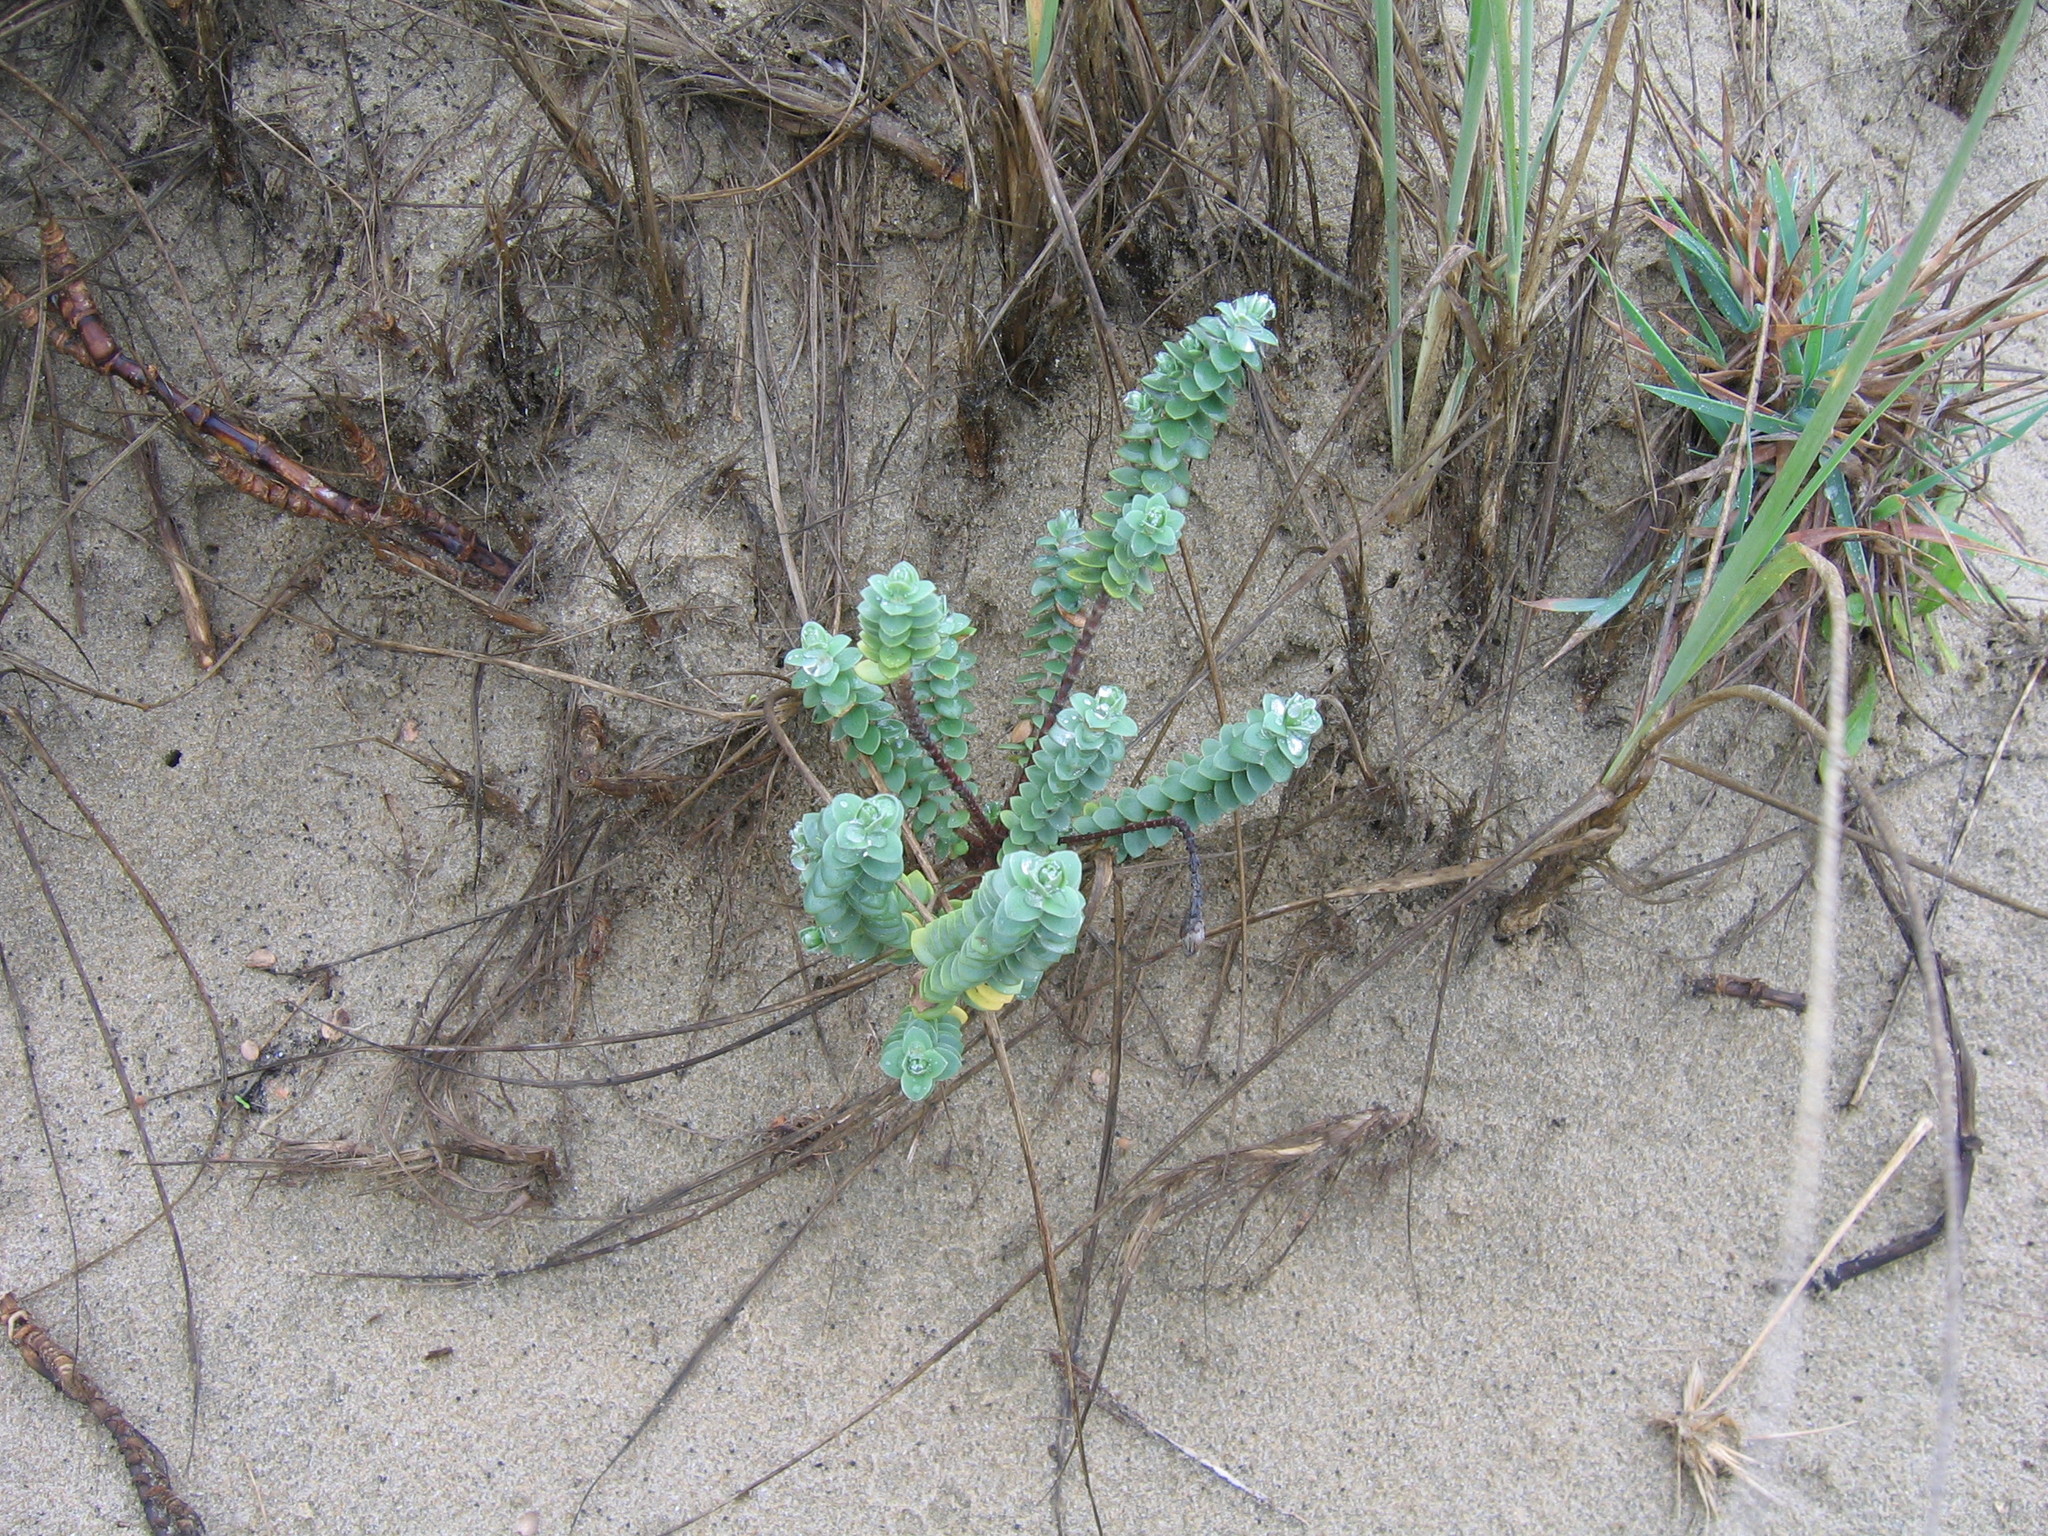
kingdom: Plantae
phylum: Tracheophyta
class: Magnoliopsida
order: Malvales
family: Thymelaeaceae
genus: Pimelea
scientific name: Pimelea villosa
